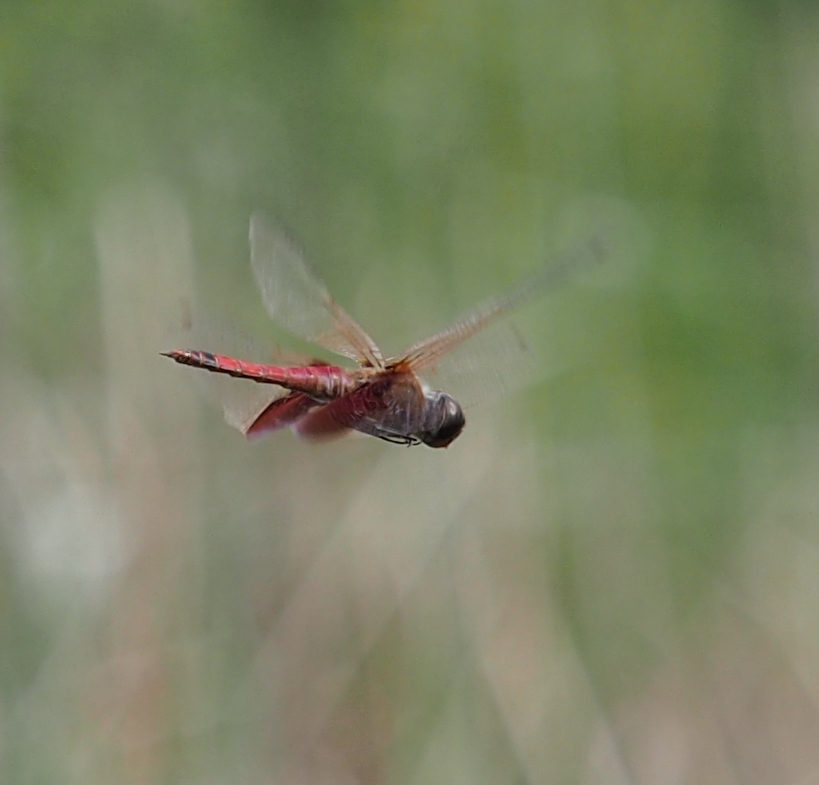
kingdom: Animalia
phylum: Arthropoda
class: Insecta
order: Odonata
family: Libellulidae
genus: Tramea
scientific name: Tramea carolina
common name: Carolina saddlebags
